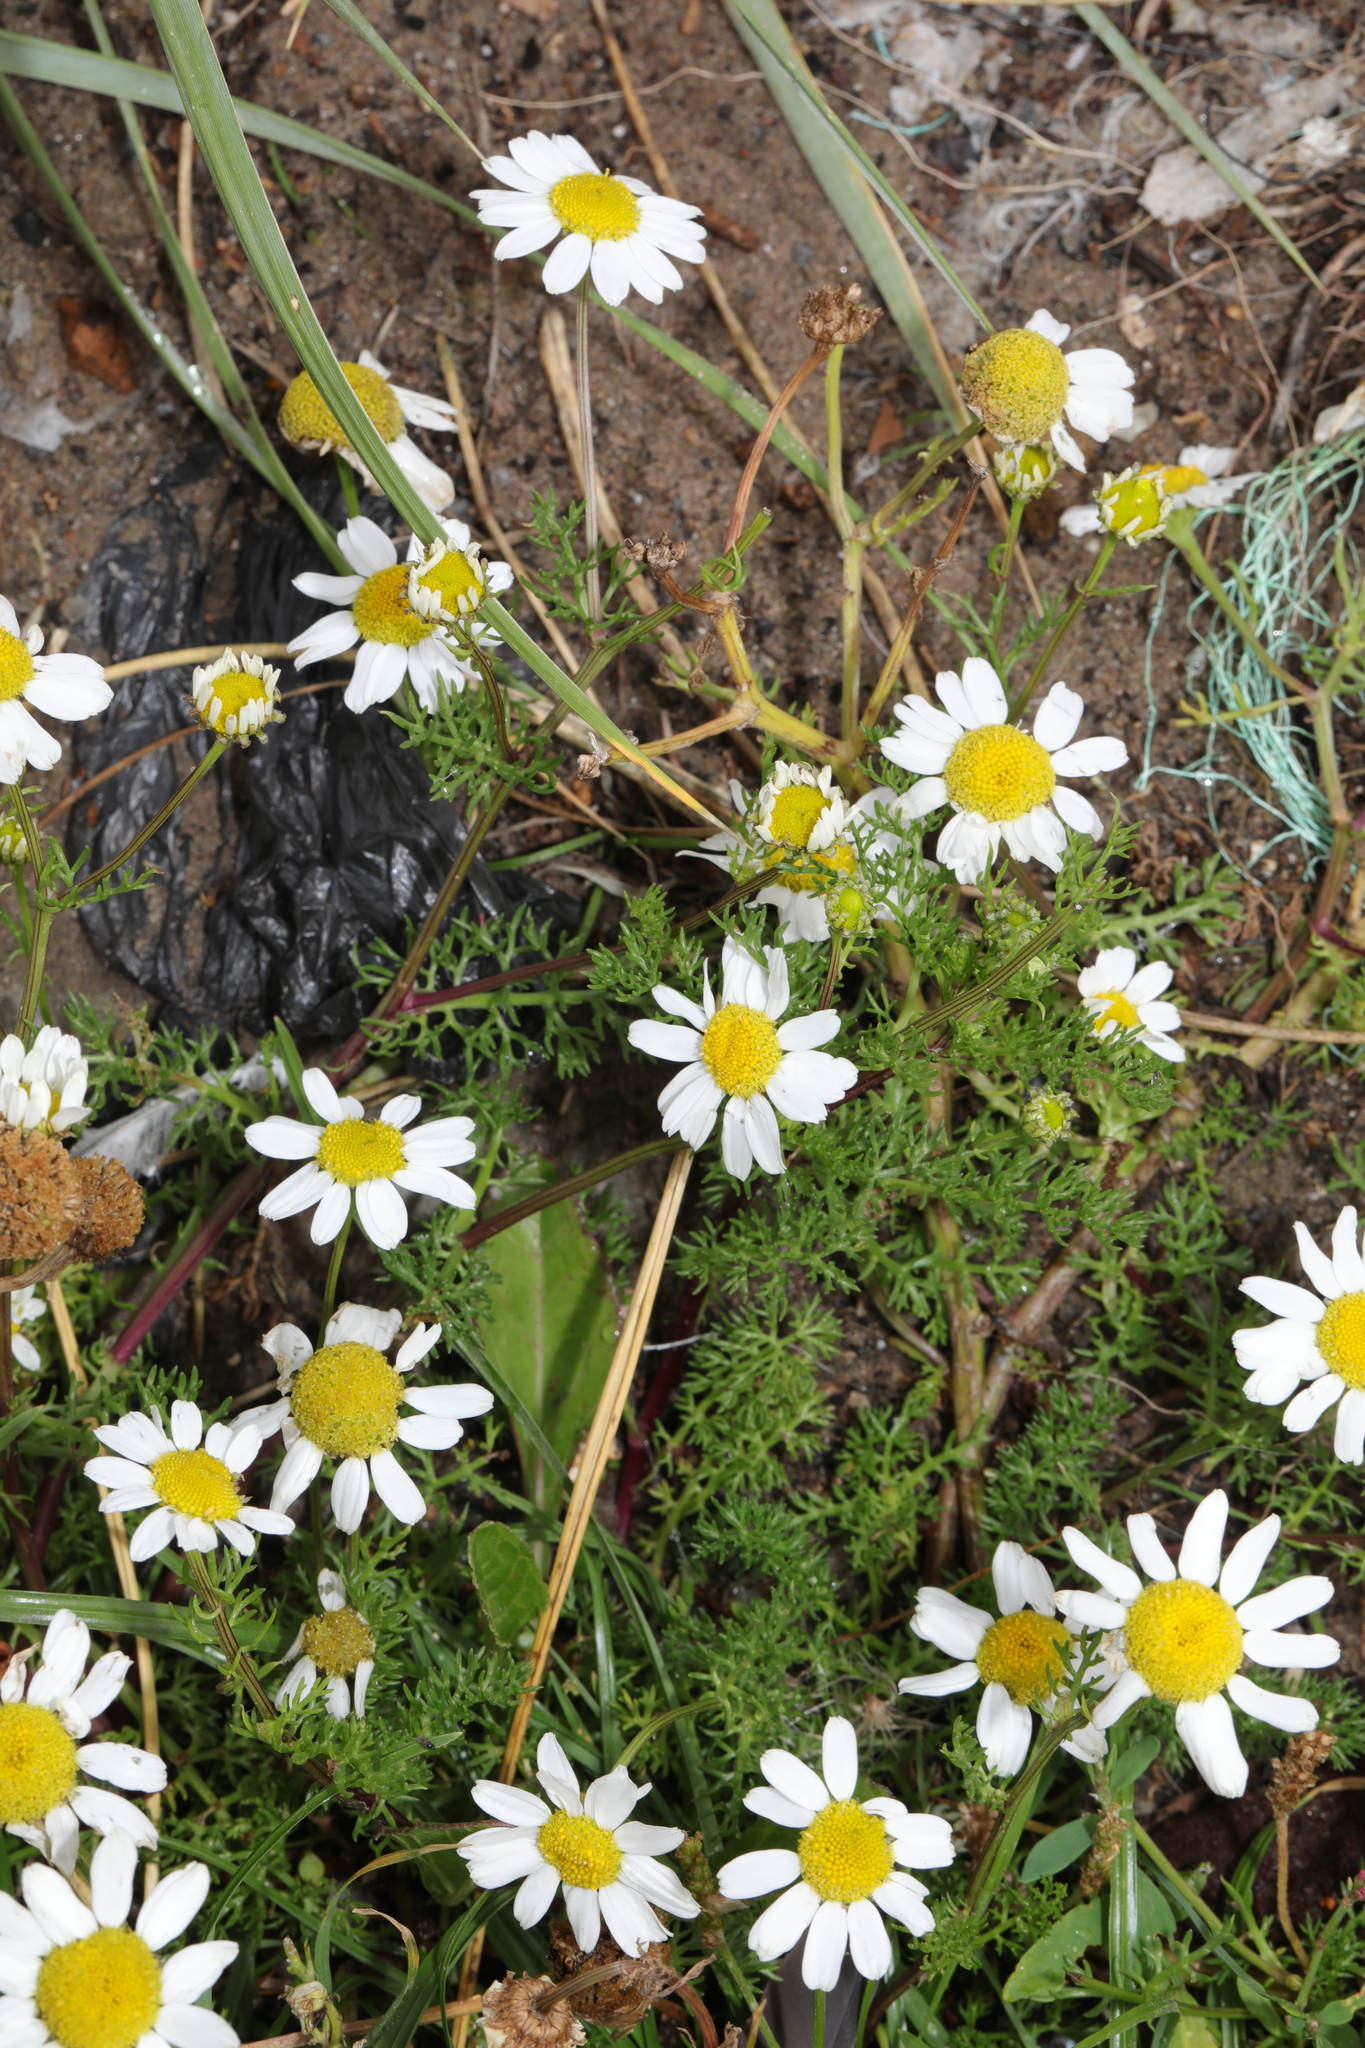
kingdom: Plantae
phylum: Tracheophyta
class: Magnoliopsida
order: Asterales
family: Asteraceae
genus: Tripleurospermum
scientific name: Tripleurospermum maritimum
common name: Sea mayweed
